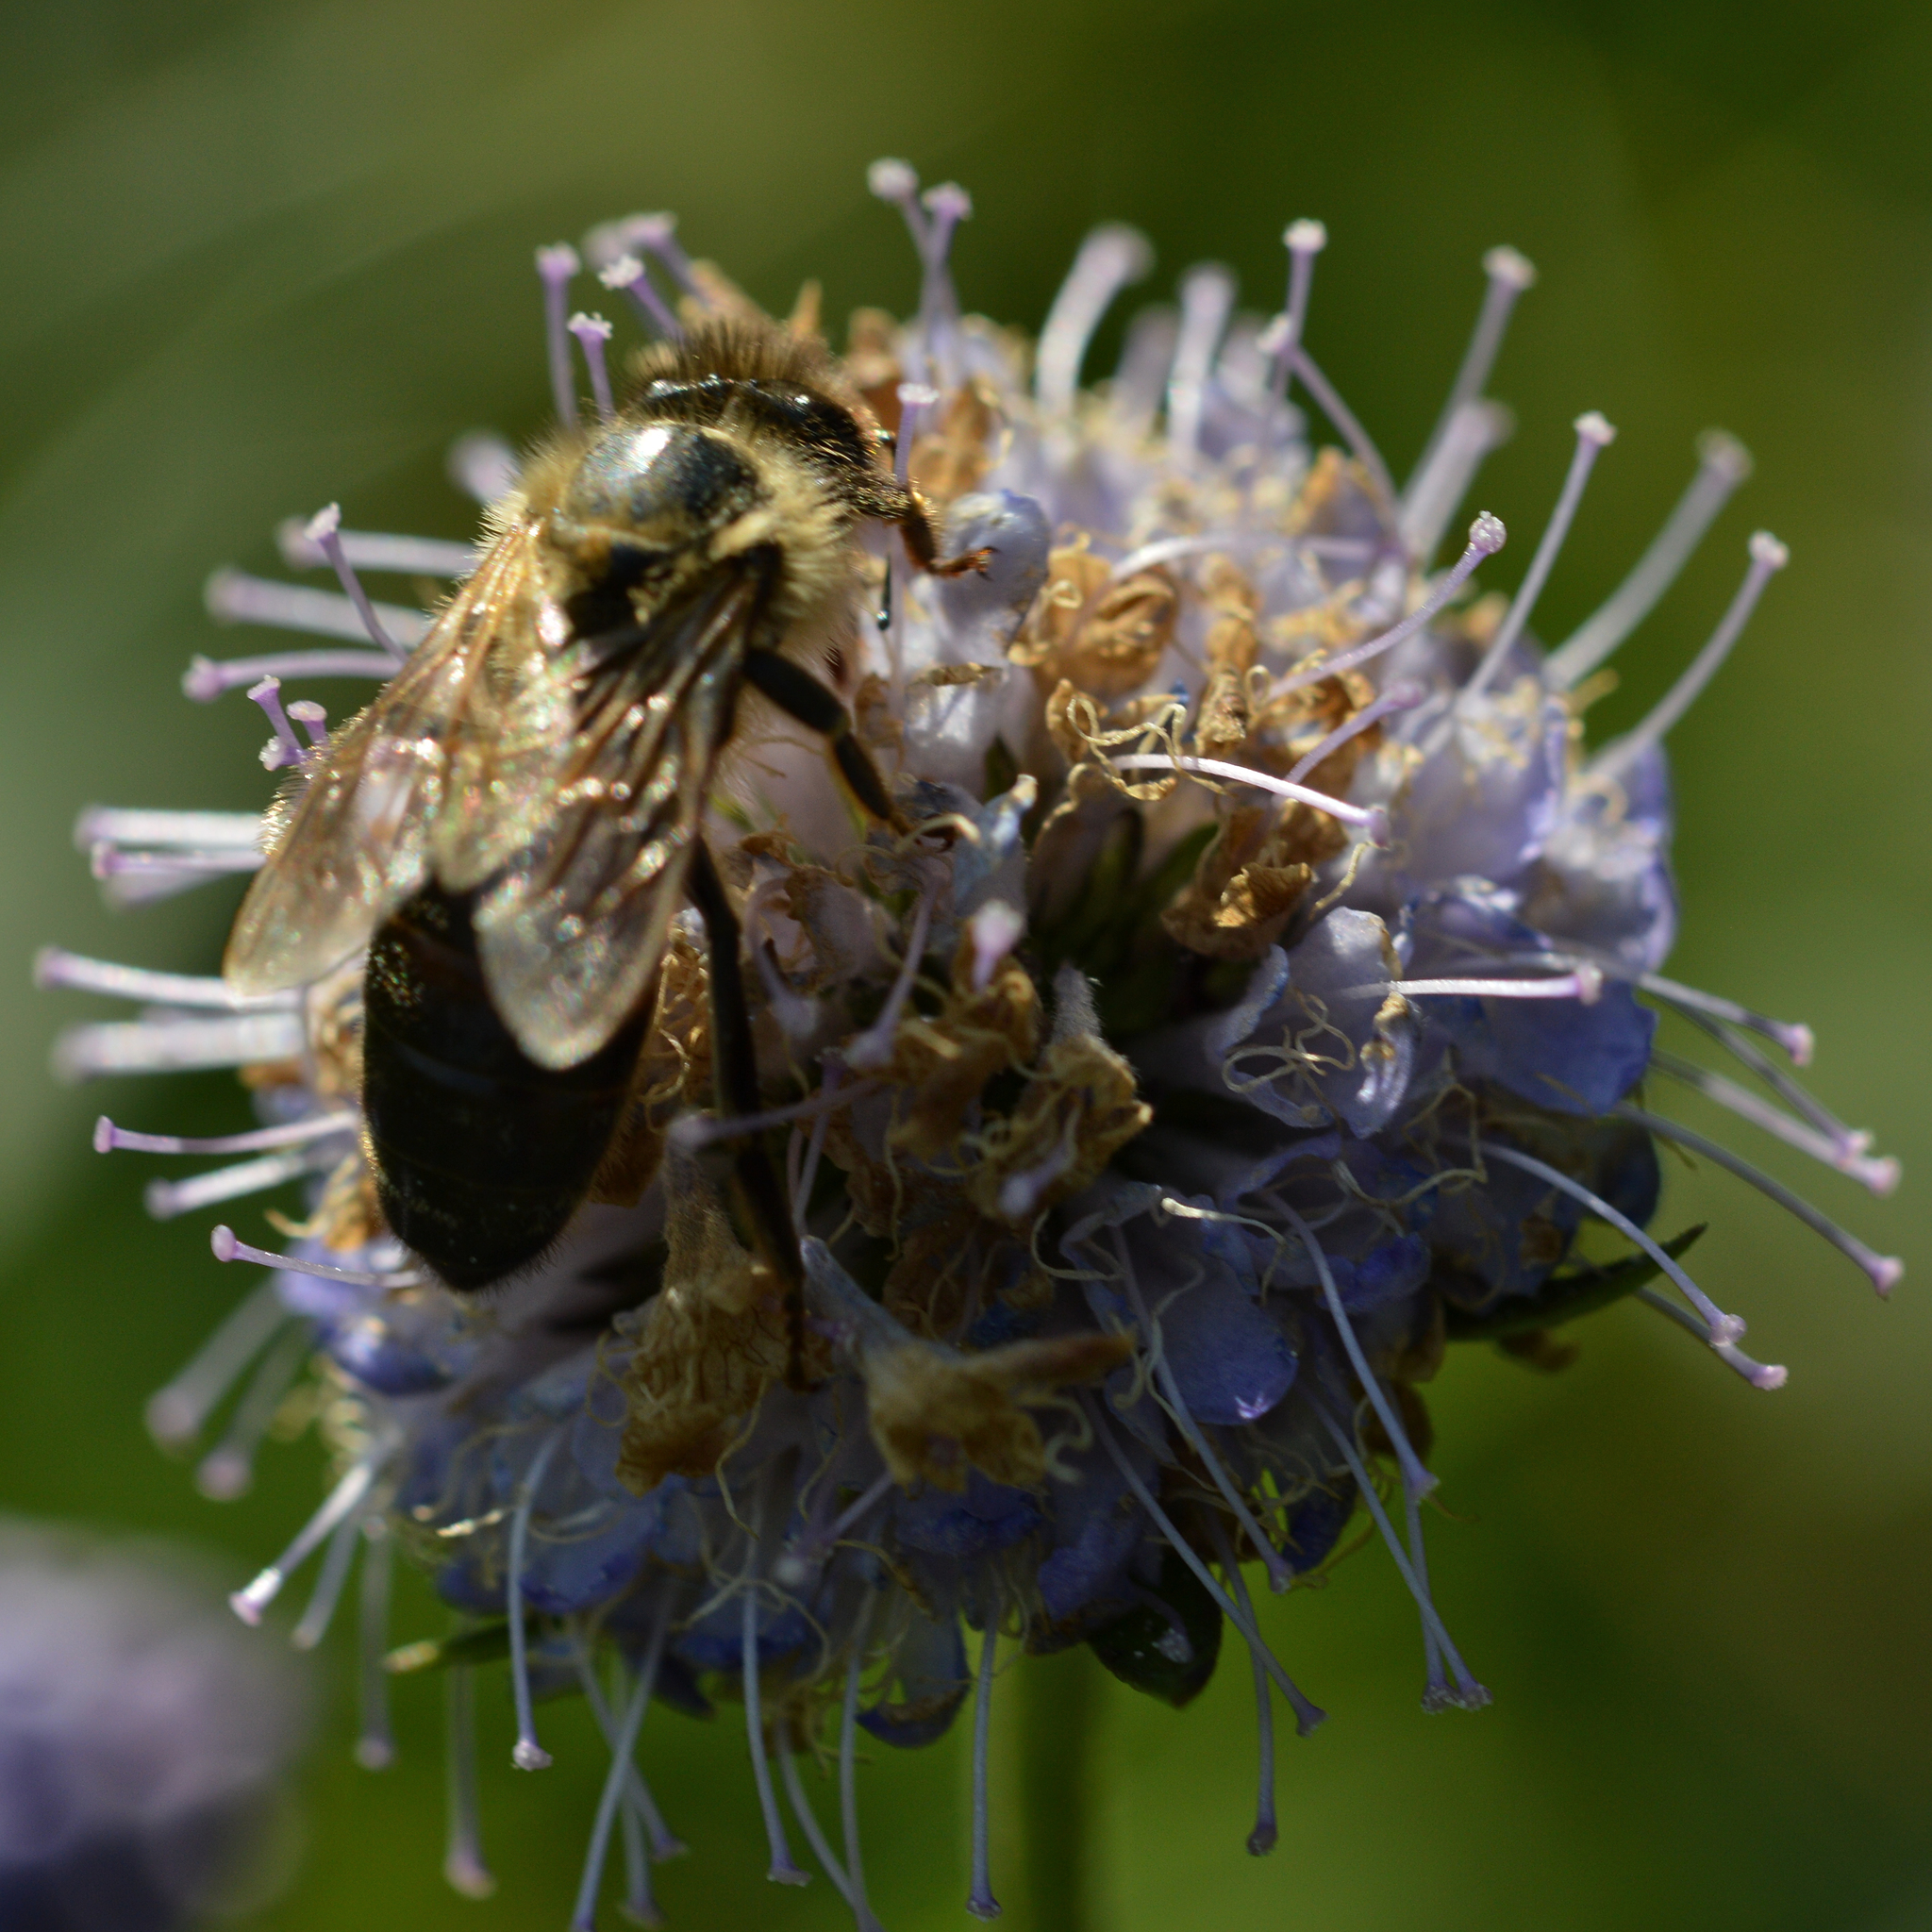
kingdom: Animalia
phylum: Arthropoda
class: Insecta
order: Hymenoptera
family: Apidae
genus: Apis
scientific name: Apis mellifera
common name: Honey bee
